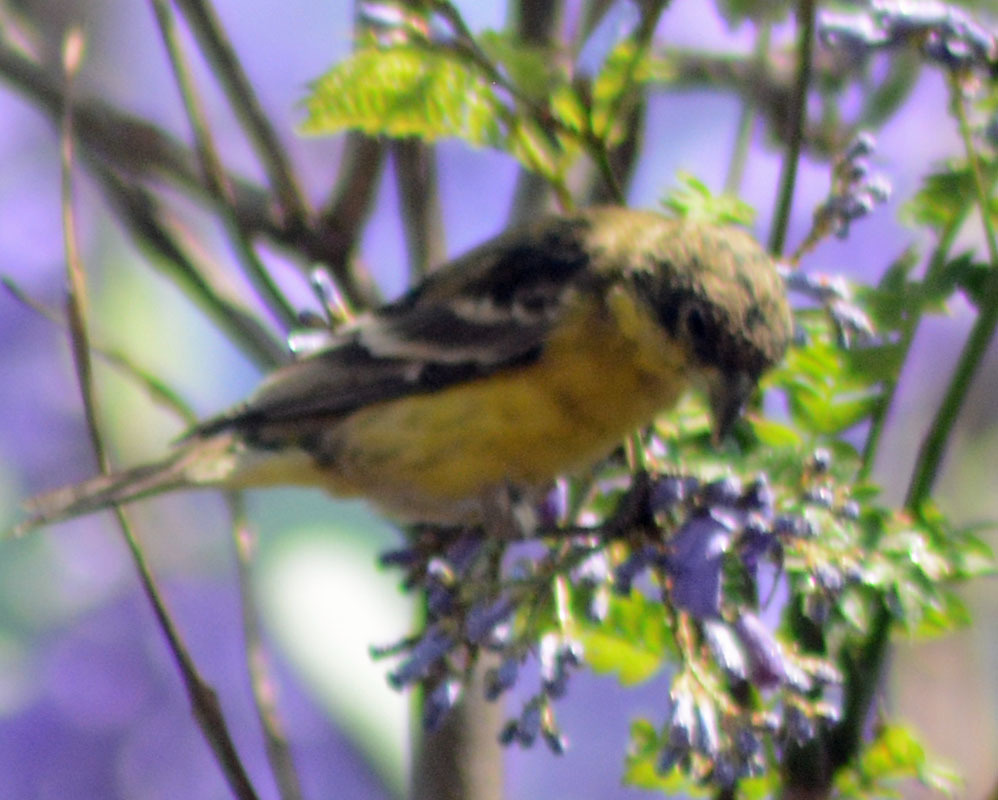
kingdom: Animalia
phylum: Chordata
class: Aves
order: Passeriformes
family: Fringillidae
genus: Spinus
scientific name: Spinus psaltria
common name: Lesser goldfinch
